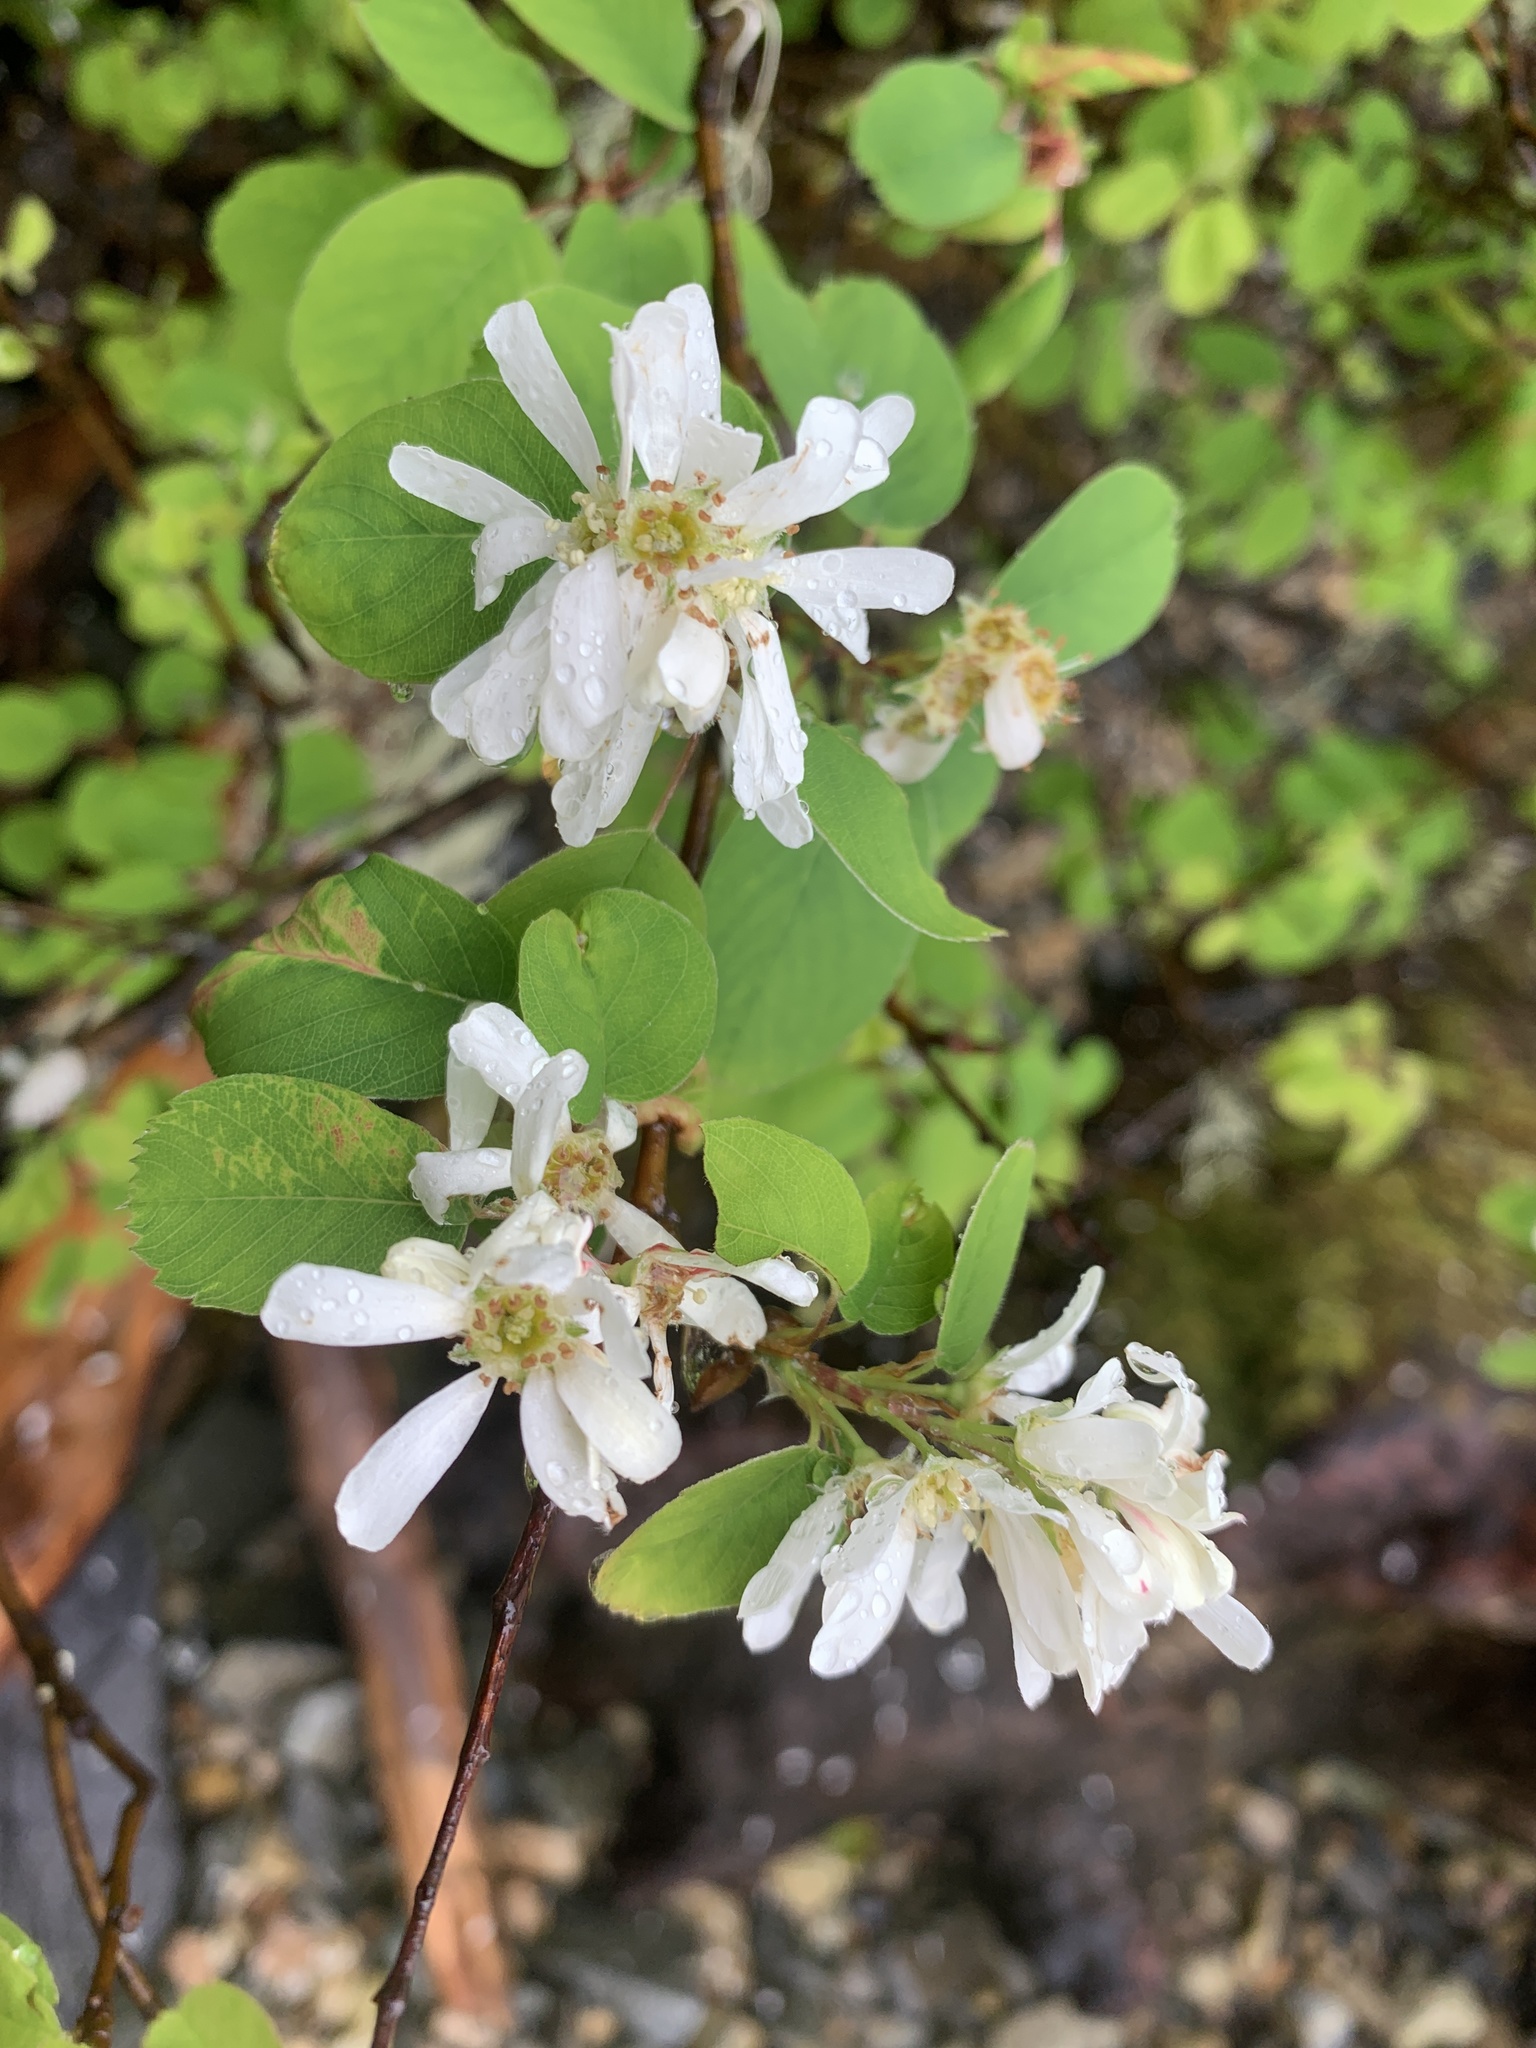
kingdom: Plantae
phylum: Tracheophyta
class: Magnoliopsida
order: Rosales
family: Rosaceae
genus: Amelanchier
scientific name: Amelanchier alnifolia
